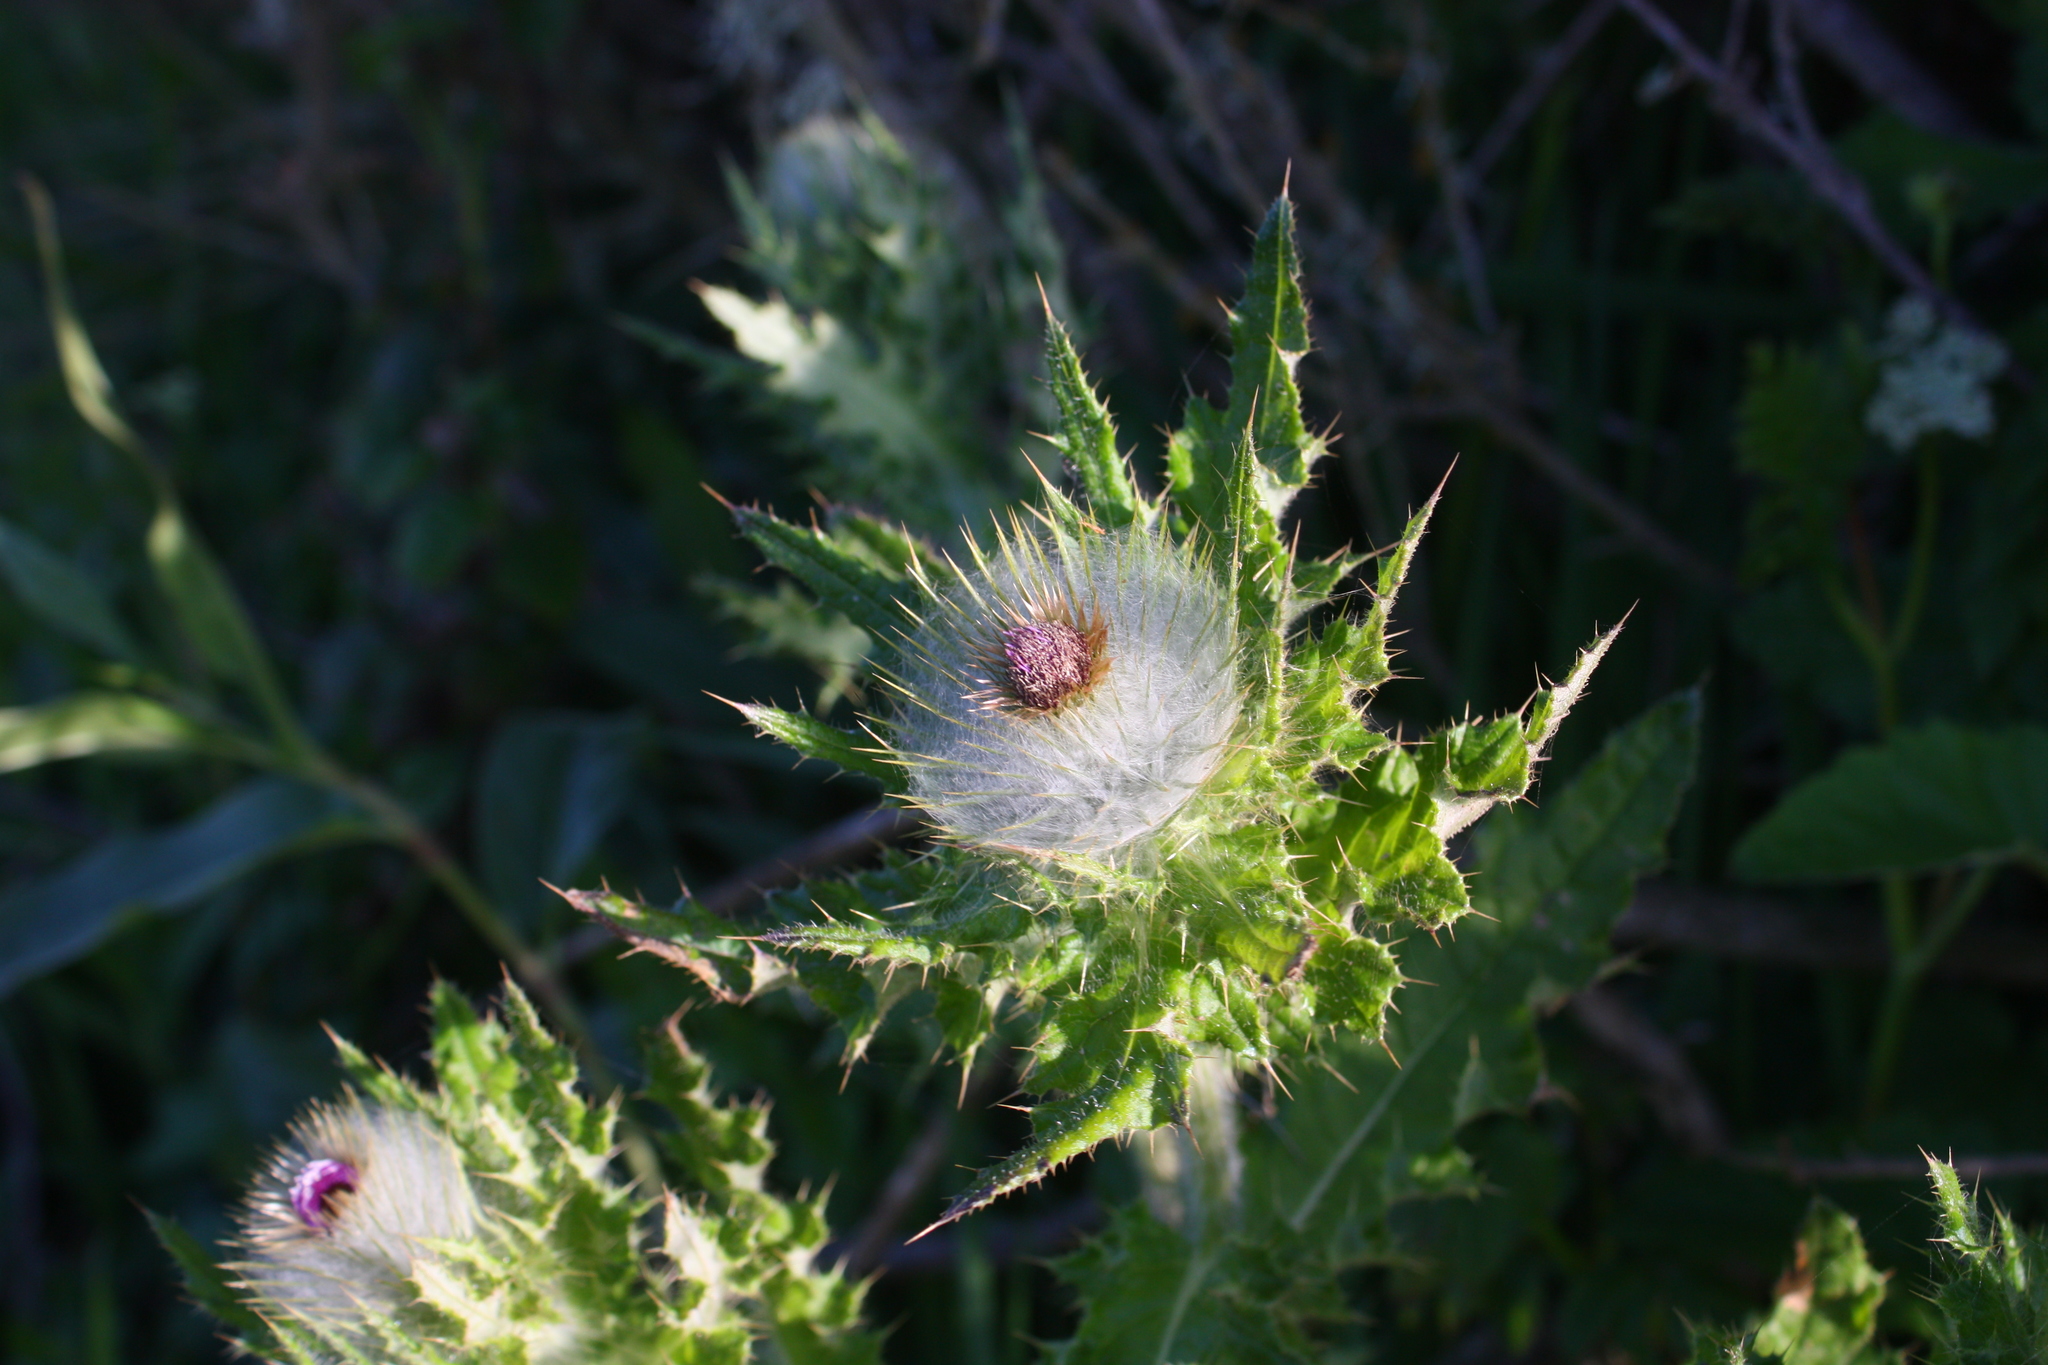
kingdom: Plantae
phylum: Tracheophyta
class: Magnoliopsida
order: Asterales
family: Asteraceae
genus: Cirsium
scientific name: Cirsium brevistylum
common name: Indian thistle
